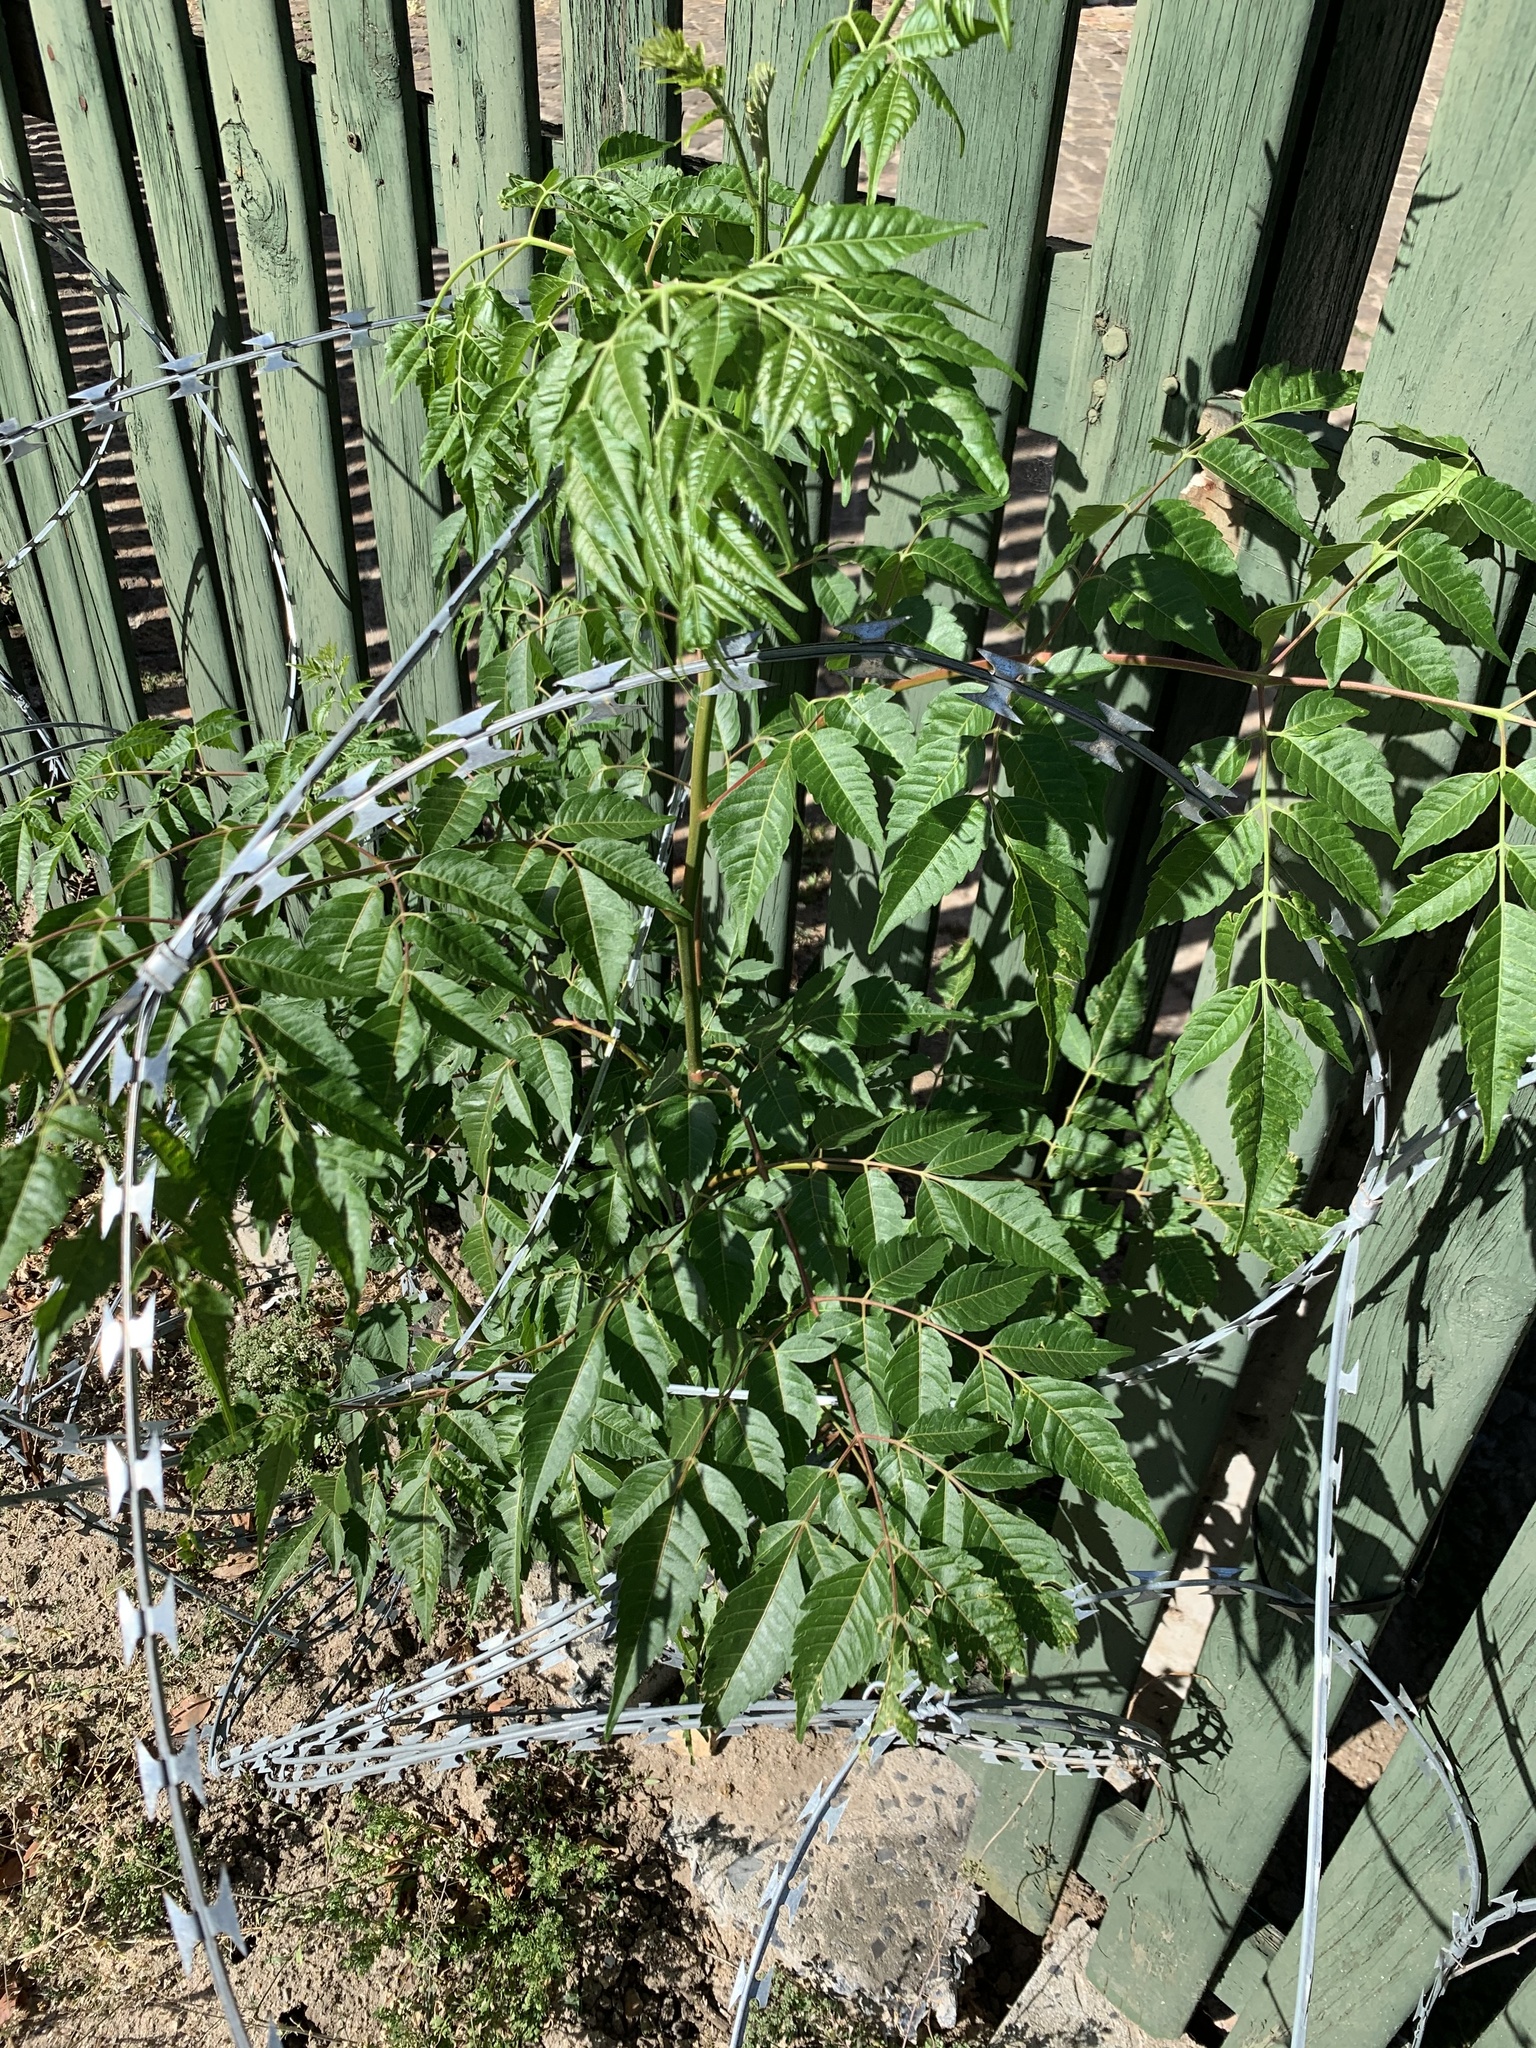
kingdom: Plantae
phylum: Tracheophyta
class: Magnoliopsida
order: Sapindales
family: Meliaceae
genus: Melia
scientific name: Melia azedarach
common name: Chinaberrytree
